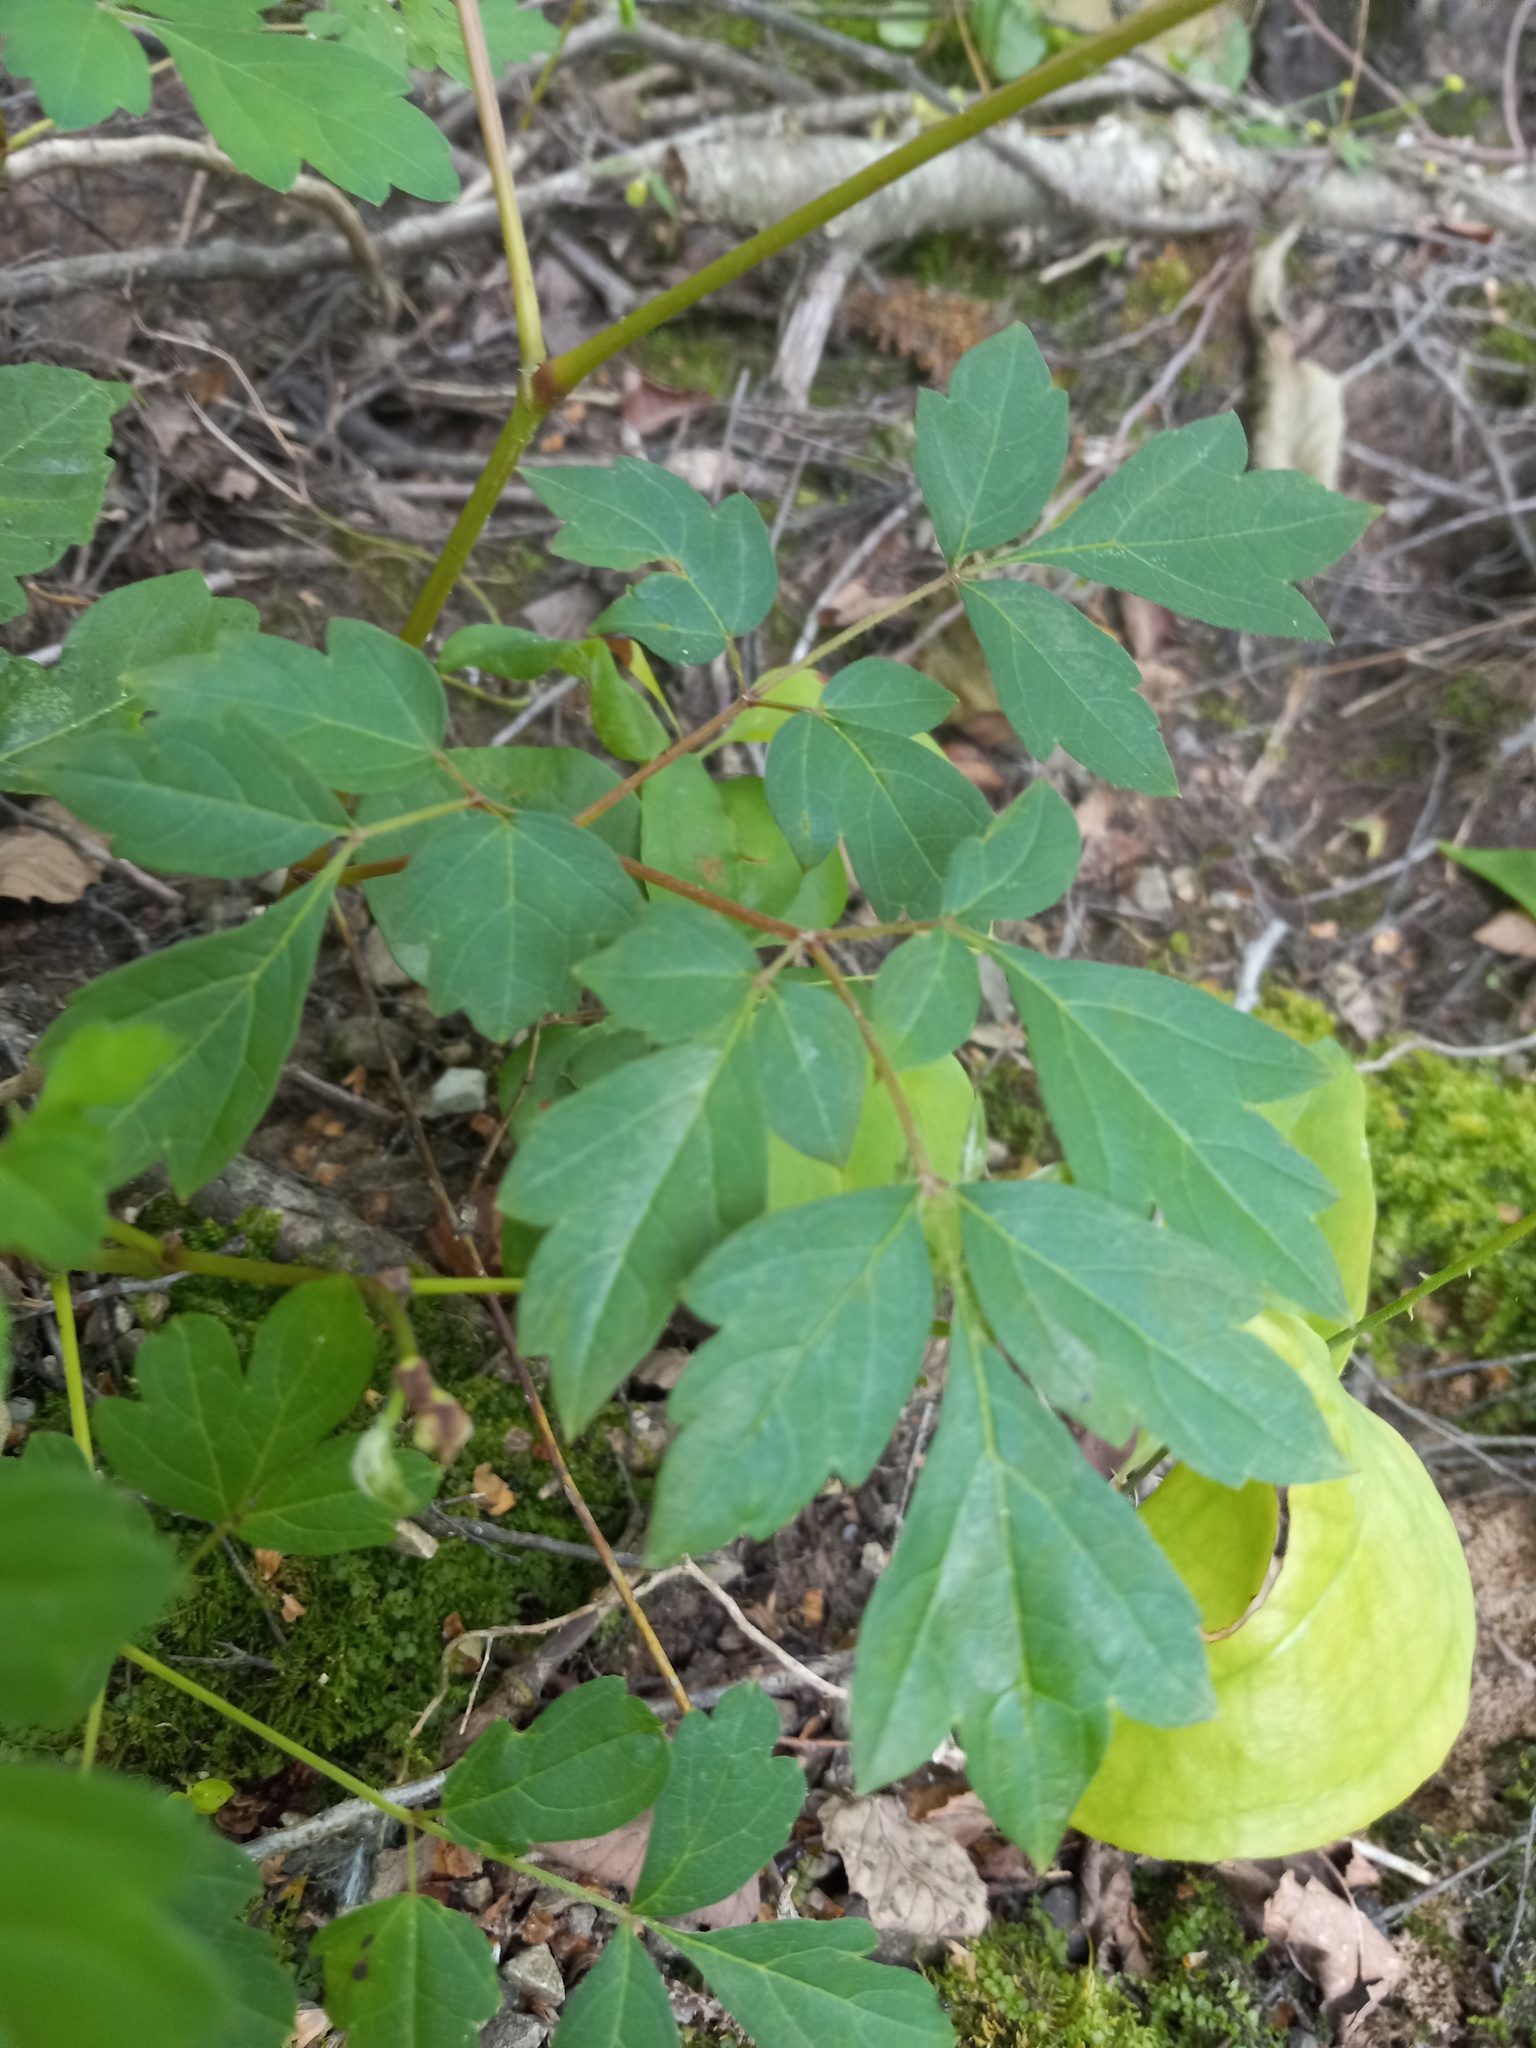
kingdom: Plantae
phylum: Tracheophyta
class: Magnoliopsida
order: Vitales
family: Vitaceae
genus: Nekemias
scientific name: Nekemias arborea
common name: Peppervine
